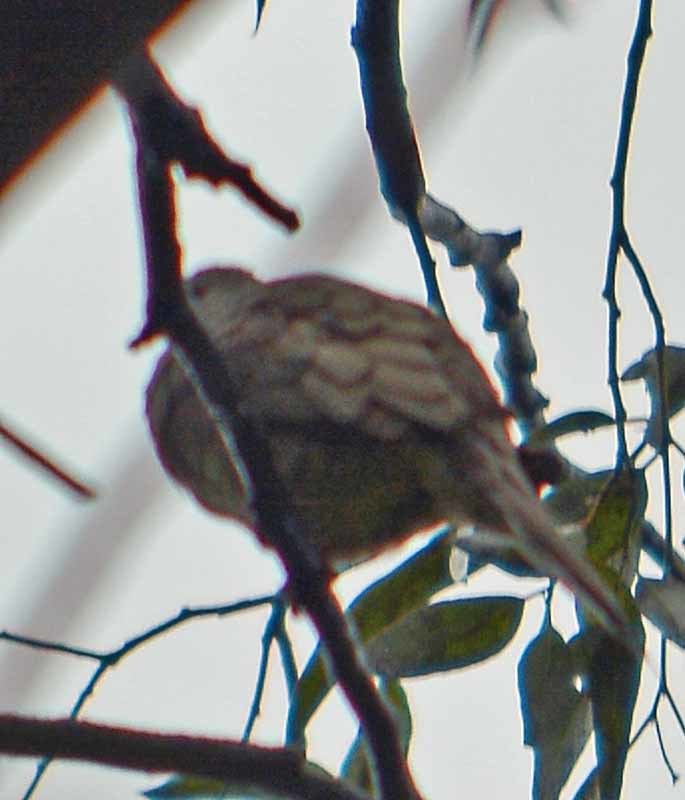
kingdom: Animalia
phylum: Chordata
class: Aves
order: Columbiformes
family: Columbidae
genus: Columbina
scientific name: Columbina inca
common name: Inca dove
